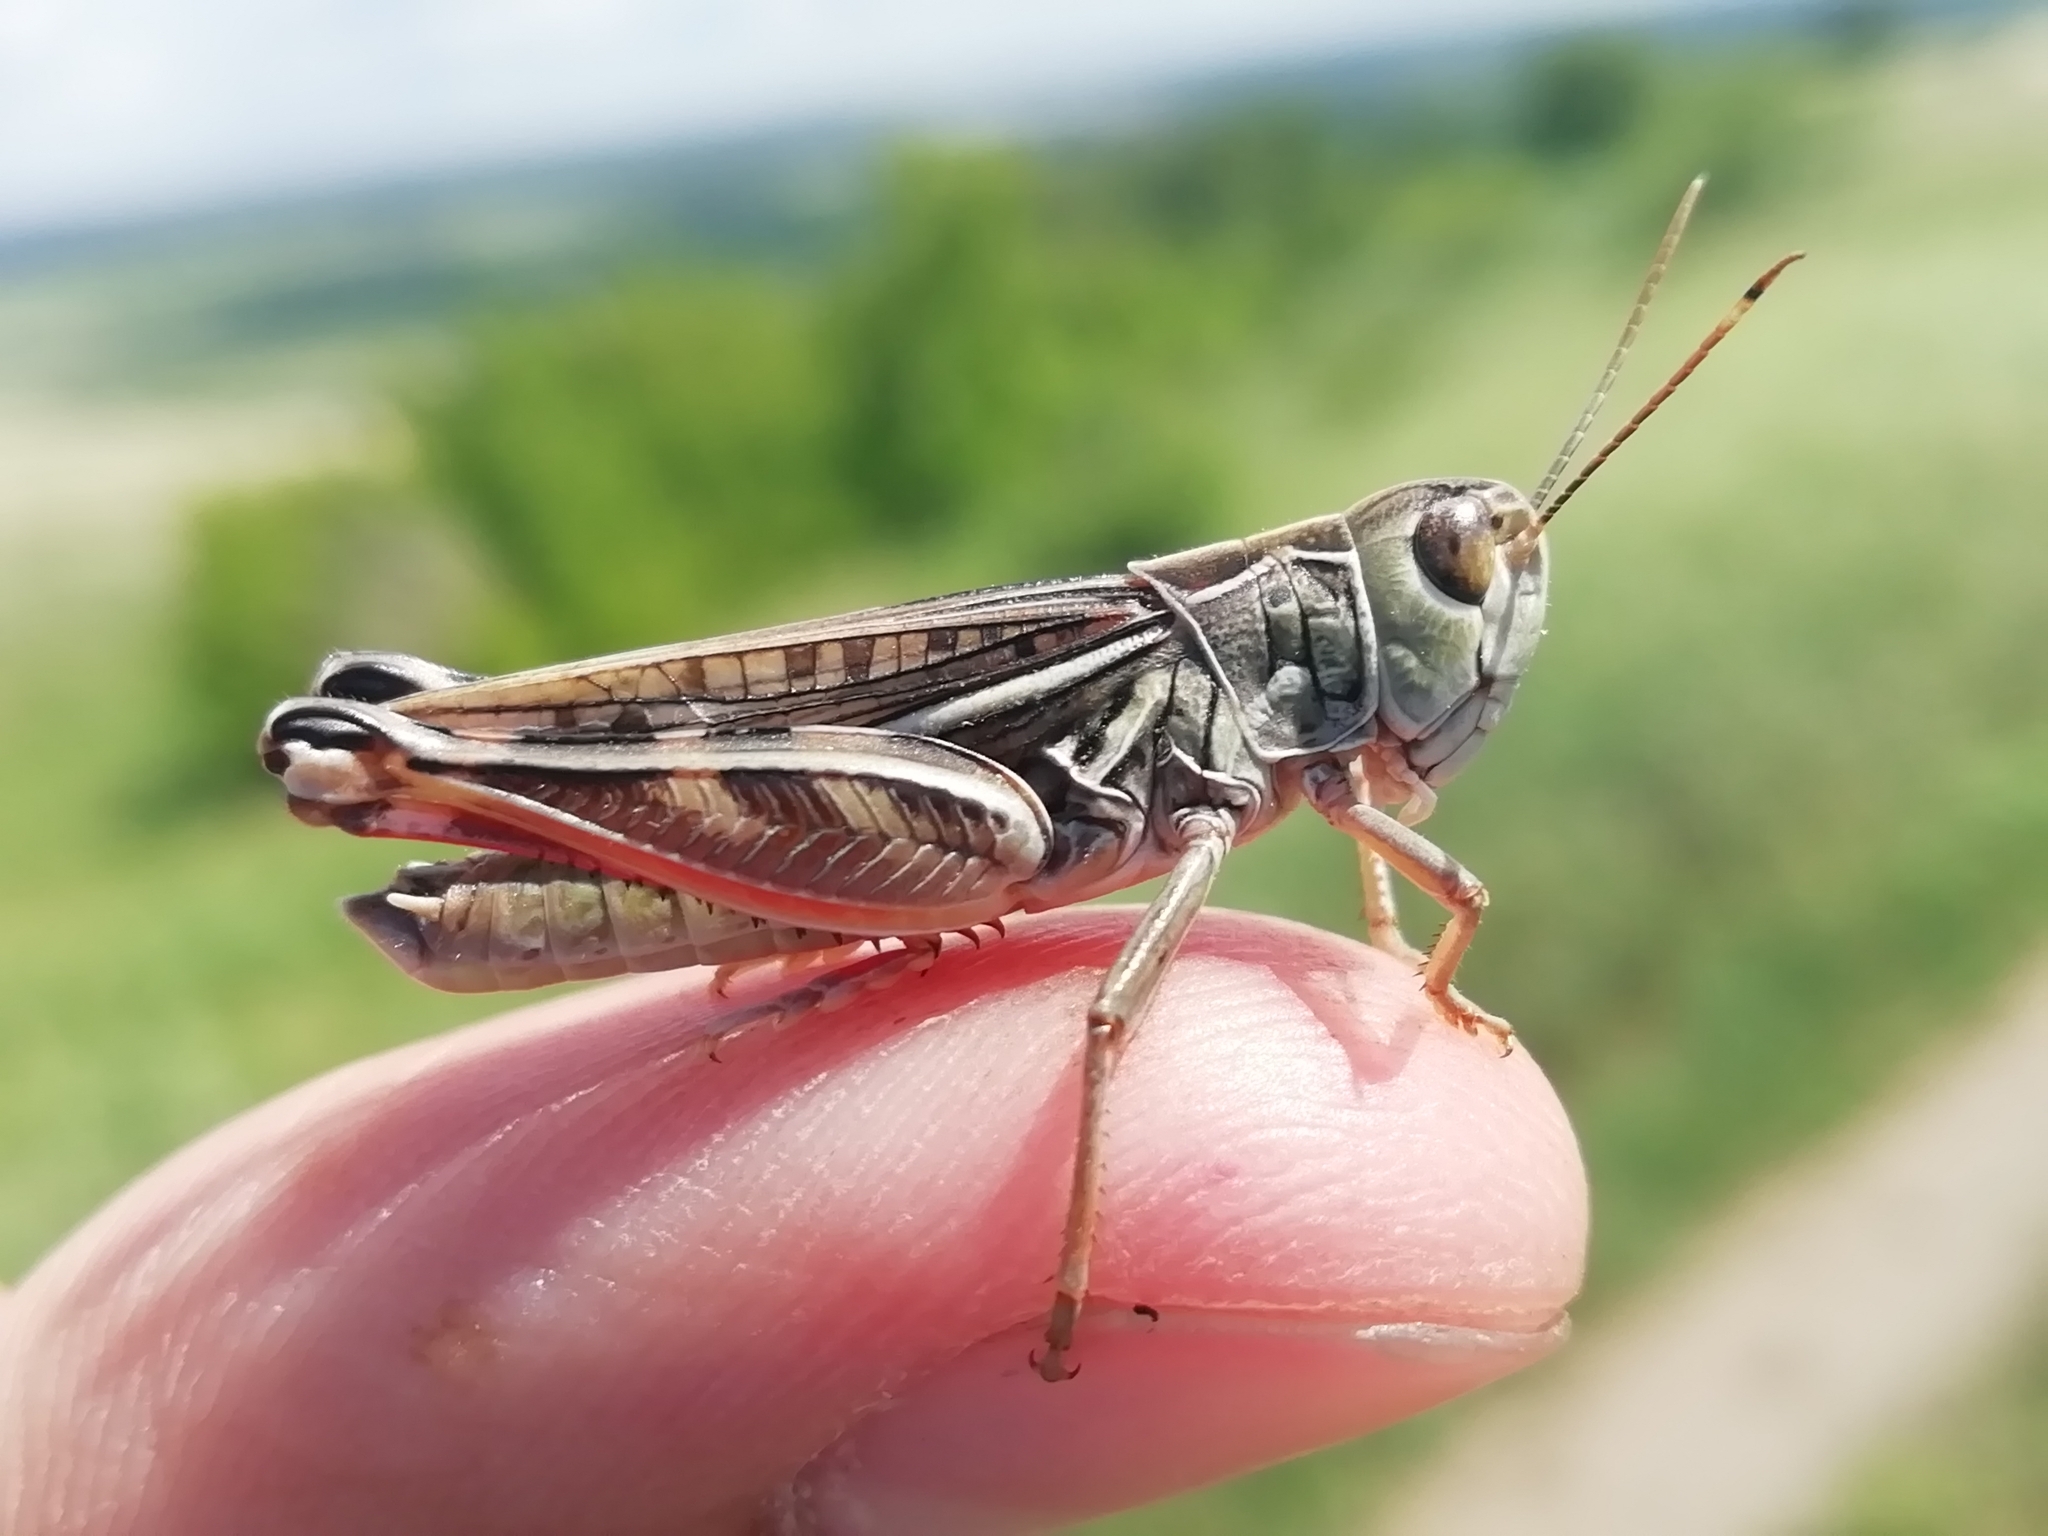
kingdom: Animalia
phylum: Arthropoda
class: Insecta
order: Orthoptera
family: Acrididae
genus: Arcyptera
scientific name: Arcyptera microptera
